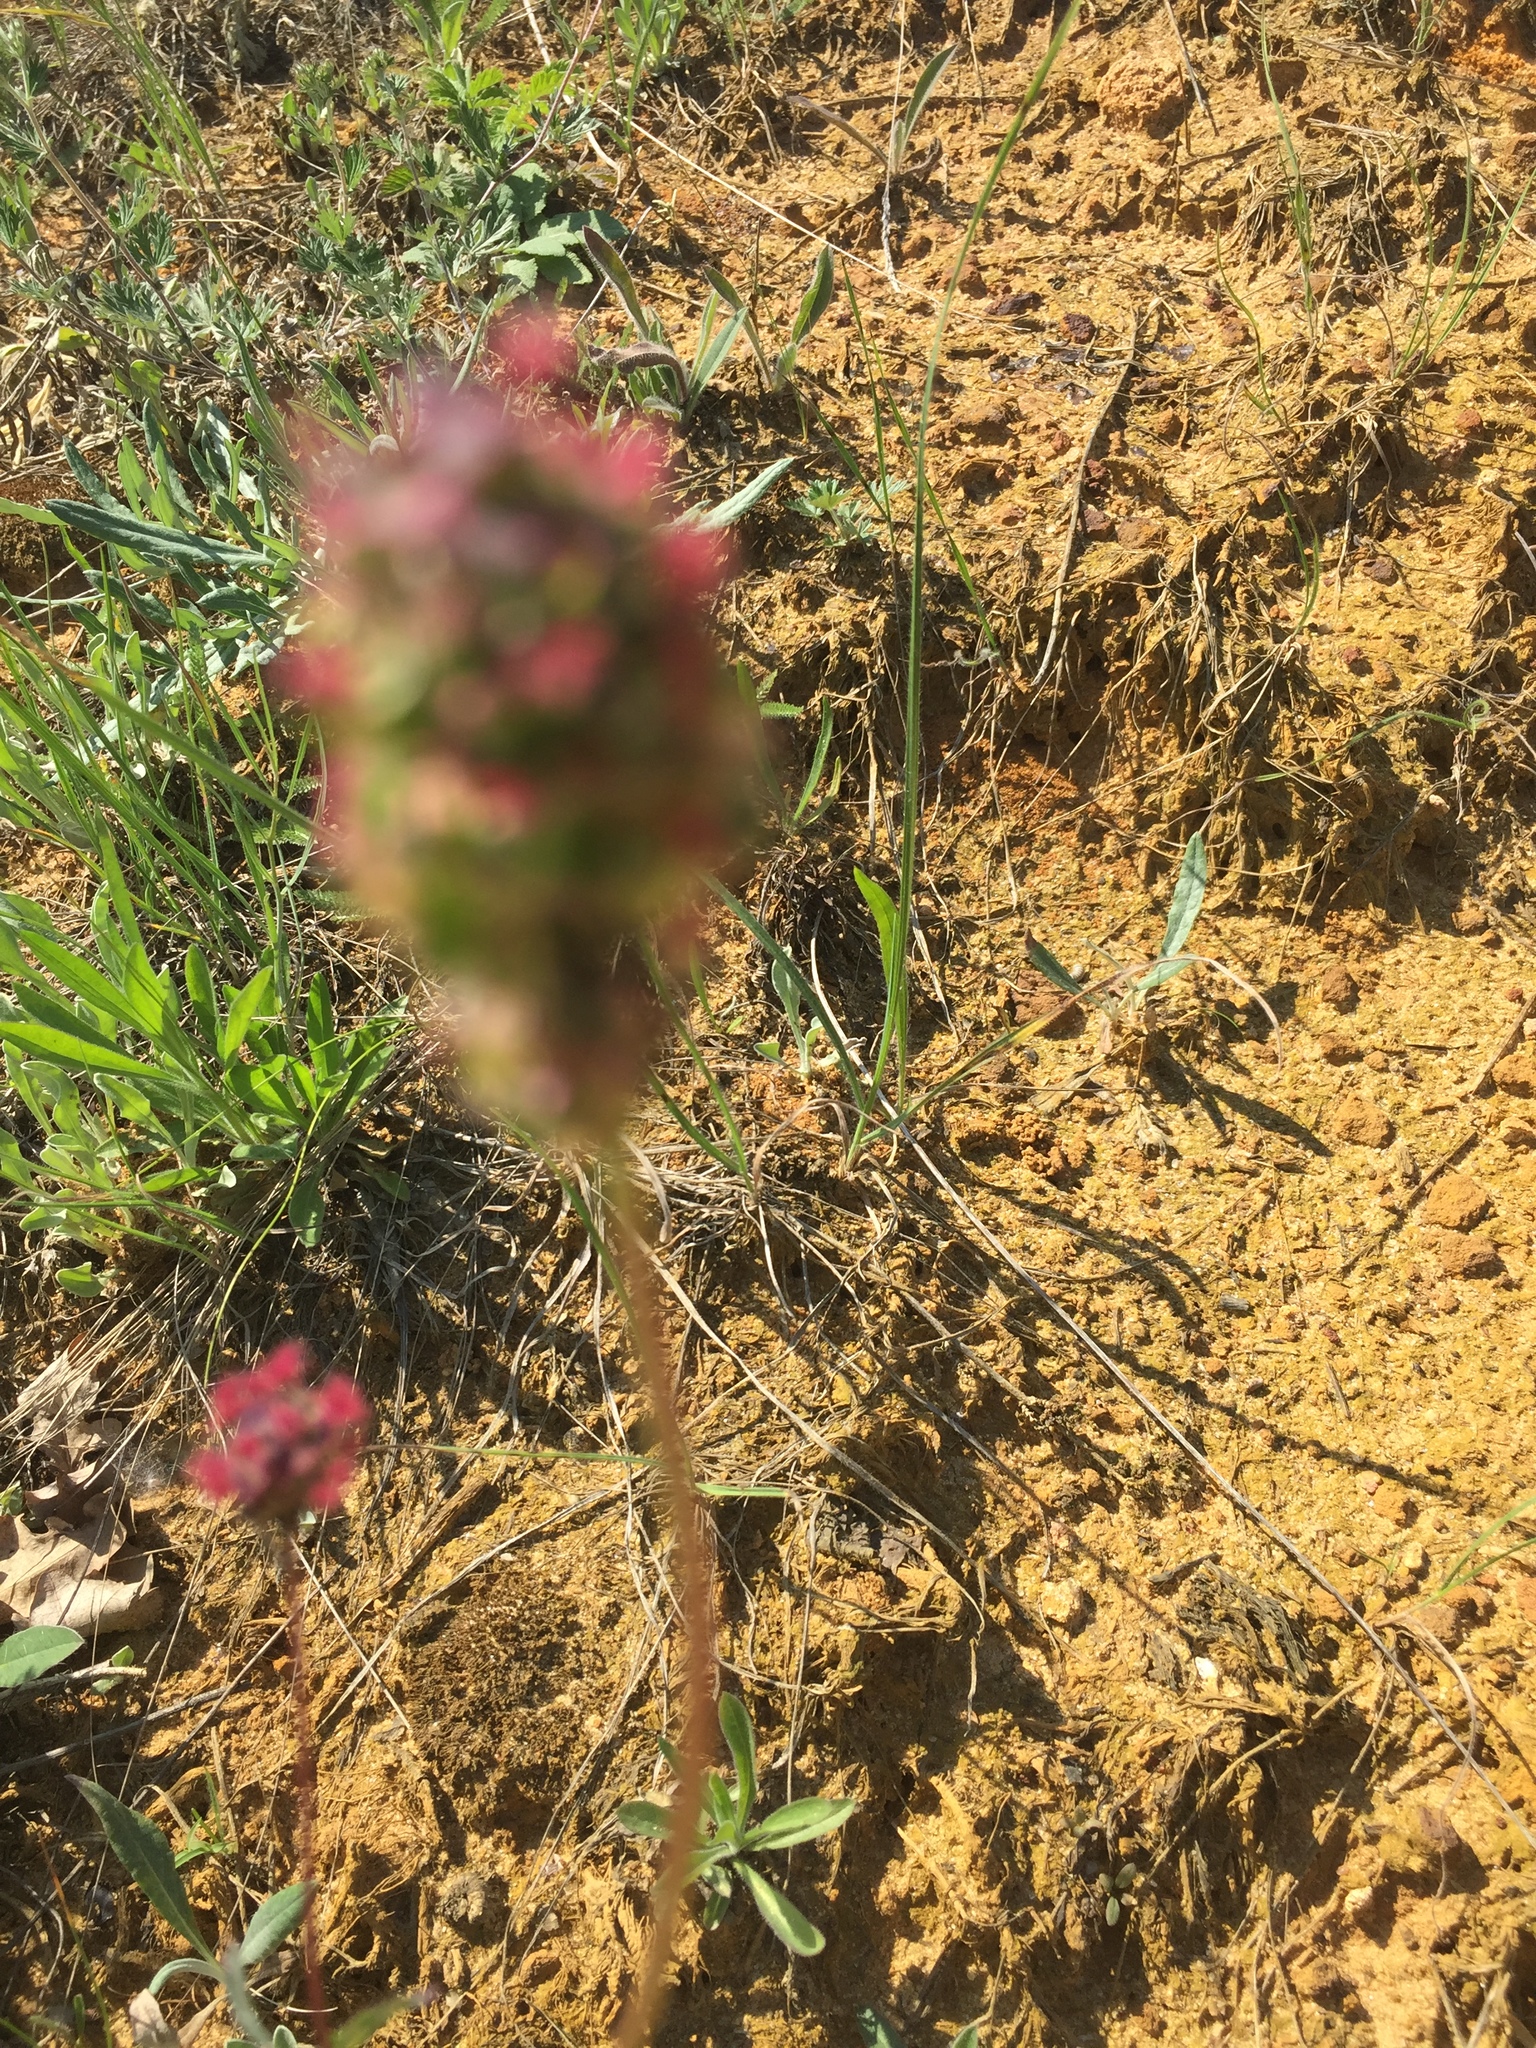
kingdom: Plantae
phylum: Tracheophyta
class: Magnoliopsida
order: Rosales
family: Rosaceae
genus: Poterium
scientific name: Poterium sanguisorba
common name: Salad burnet
